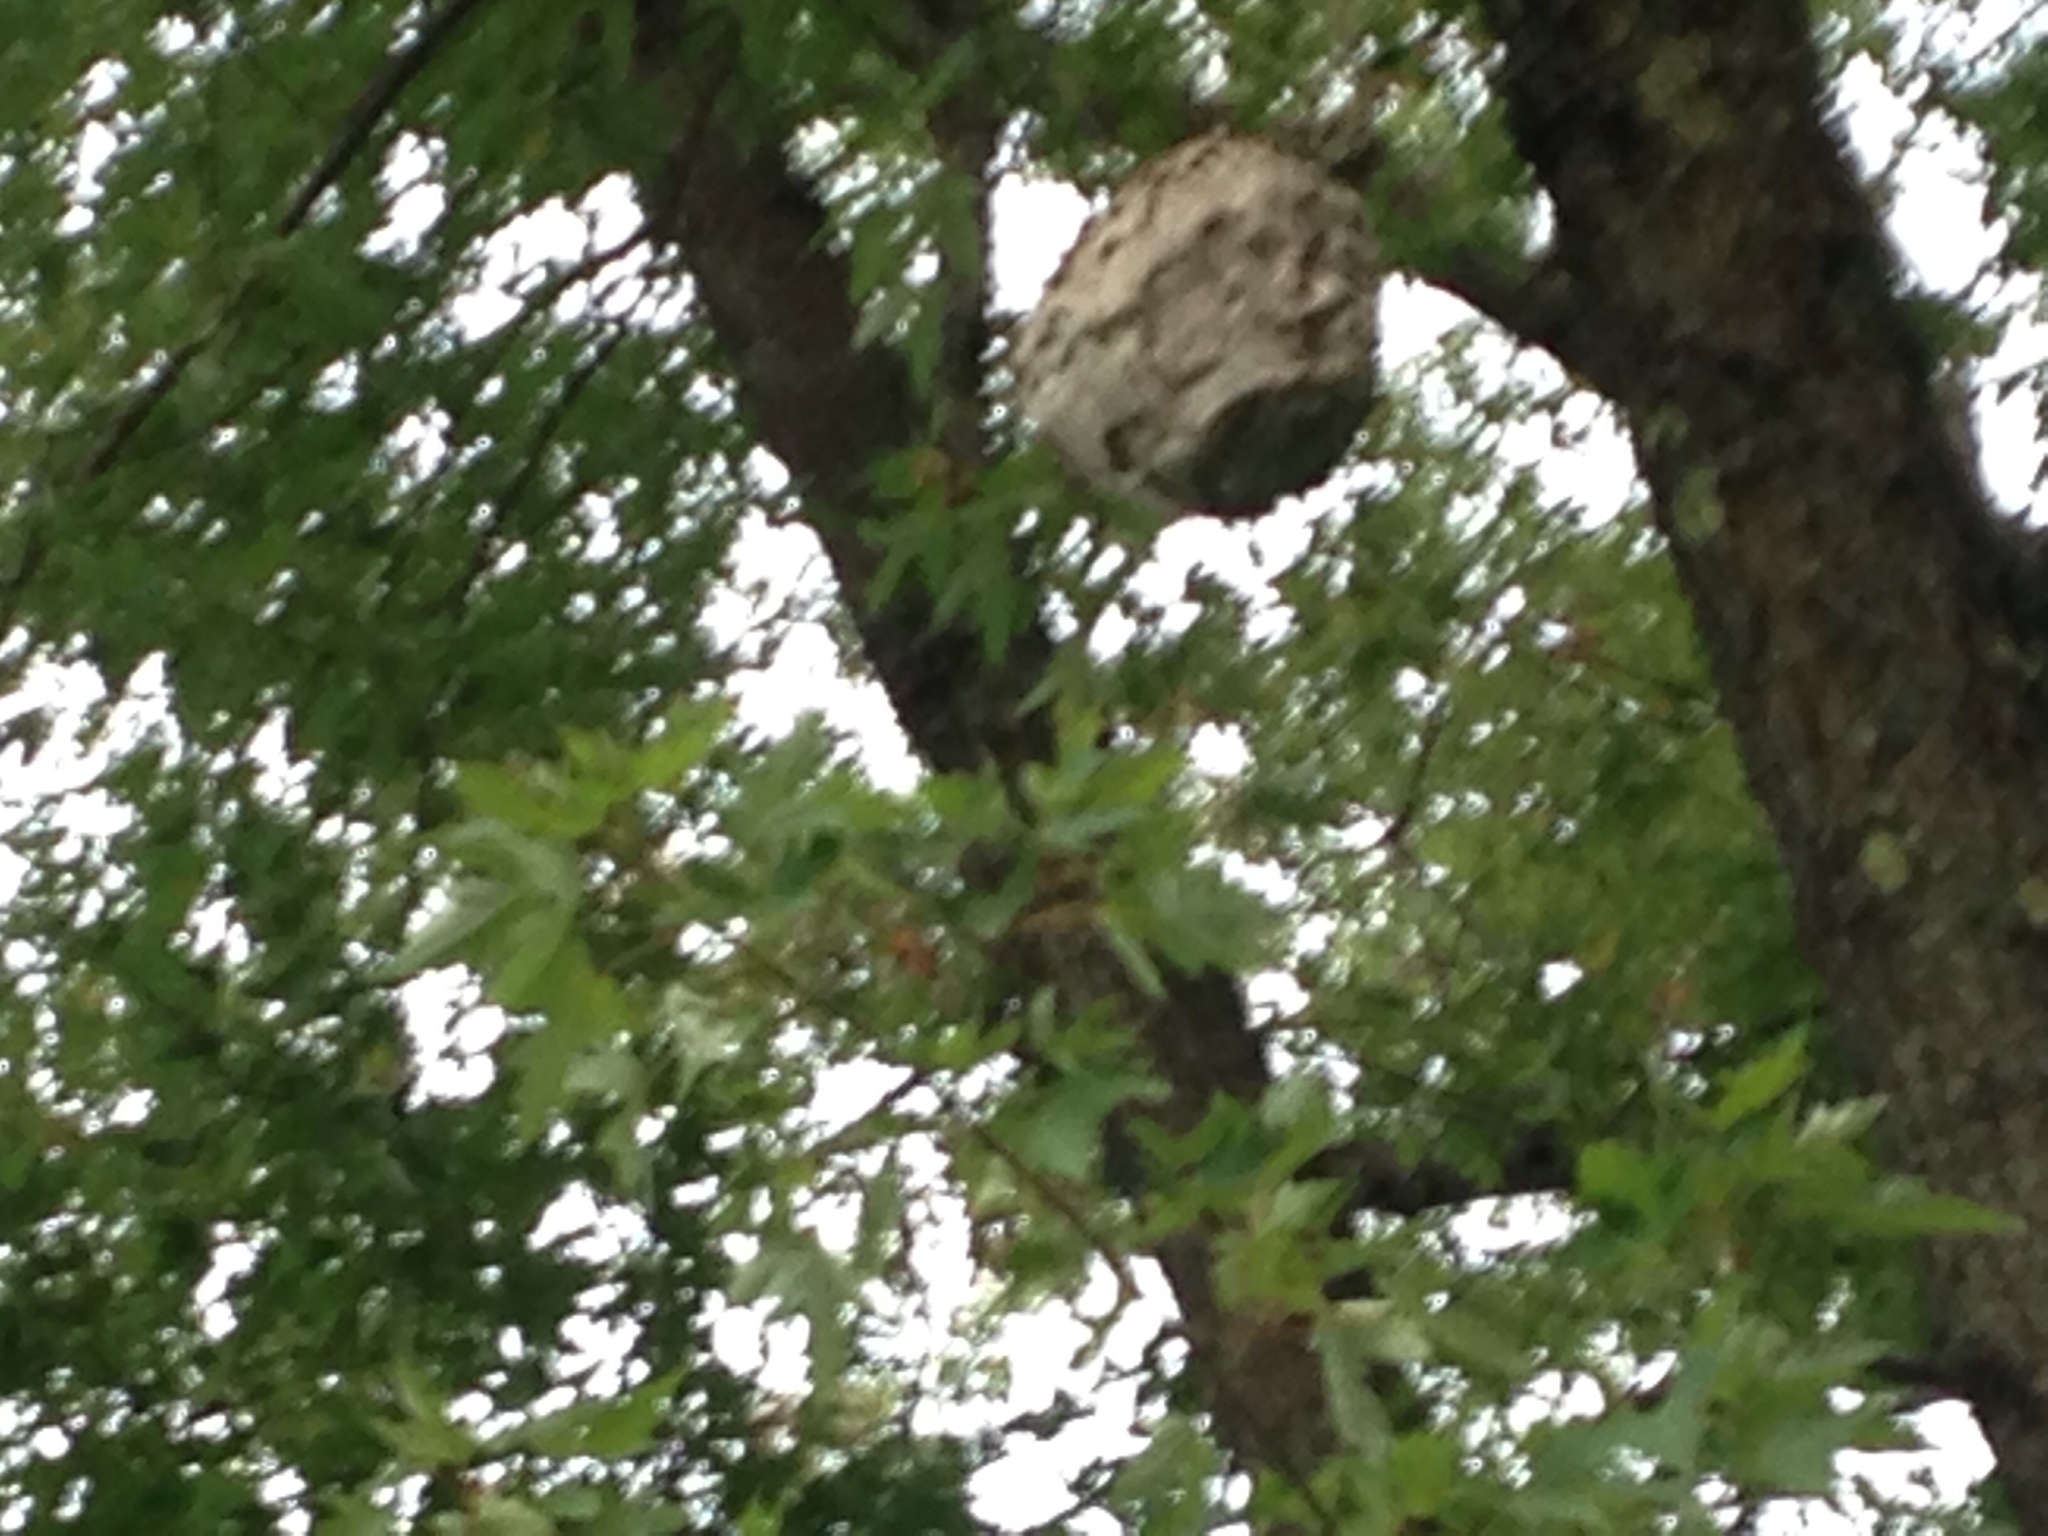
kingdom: Animalia
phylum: Arthropoda
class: Insecta
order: Hymenoptera
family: Vespidae
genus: Dolichovespula
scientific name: Dolichovespula maculata
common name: Bald-faced hornet
